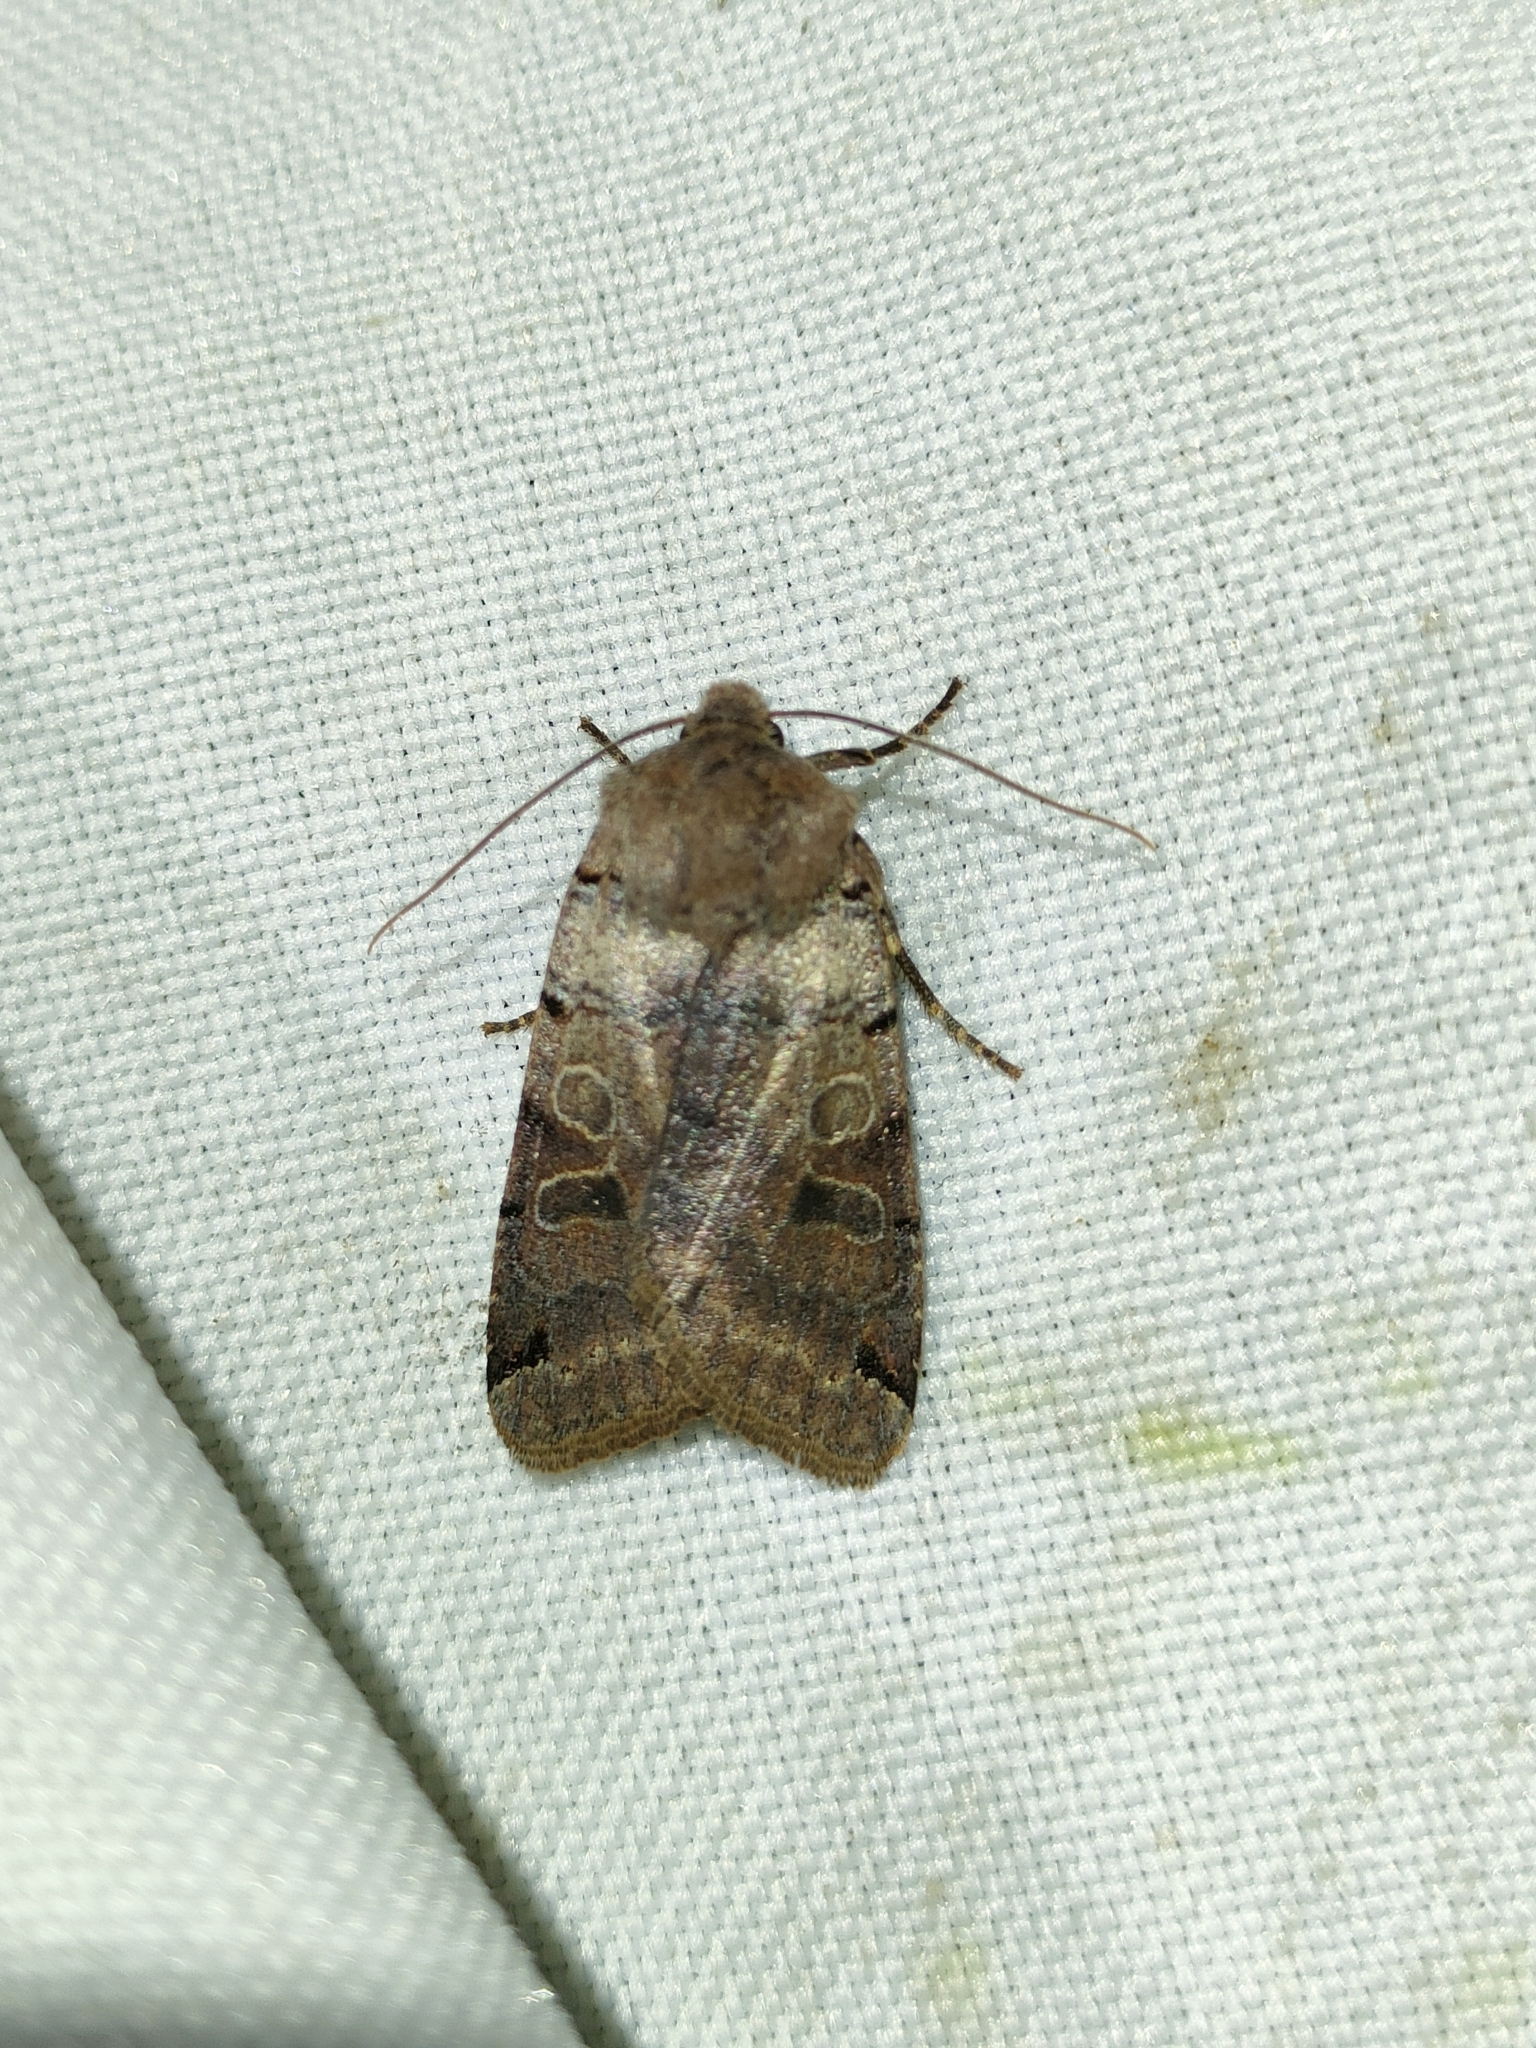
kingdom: Animalia
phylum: Arthropoda
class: Insecta
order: Lepidoptera
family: Noctuidae
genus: Agrochola
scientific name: Agrochola litura
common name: Brown-spot pinion
